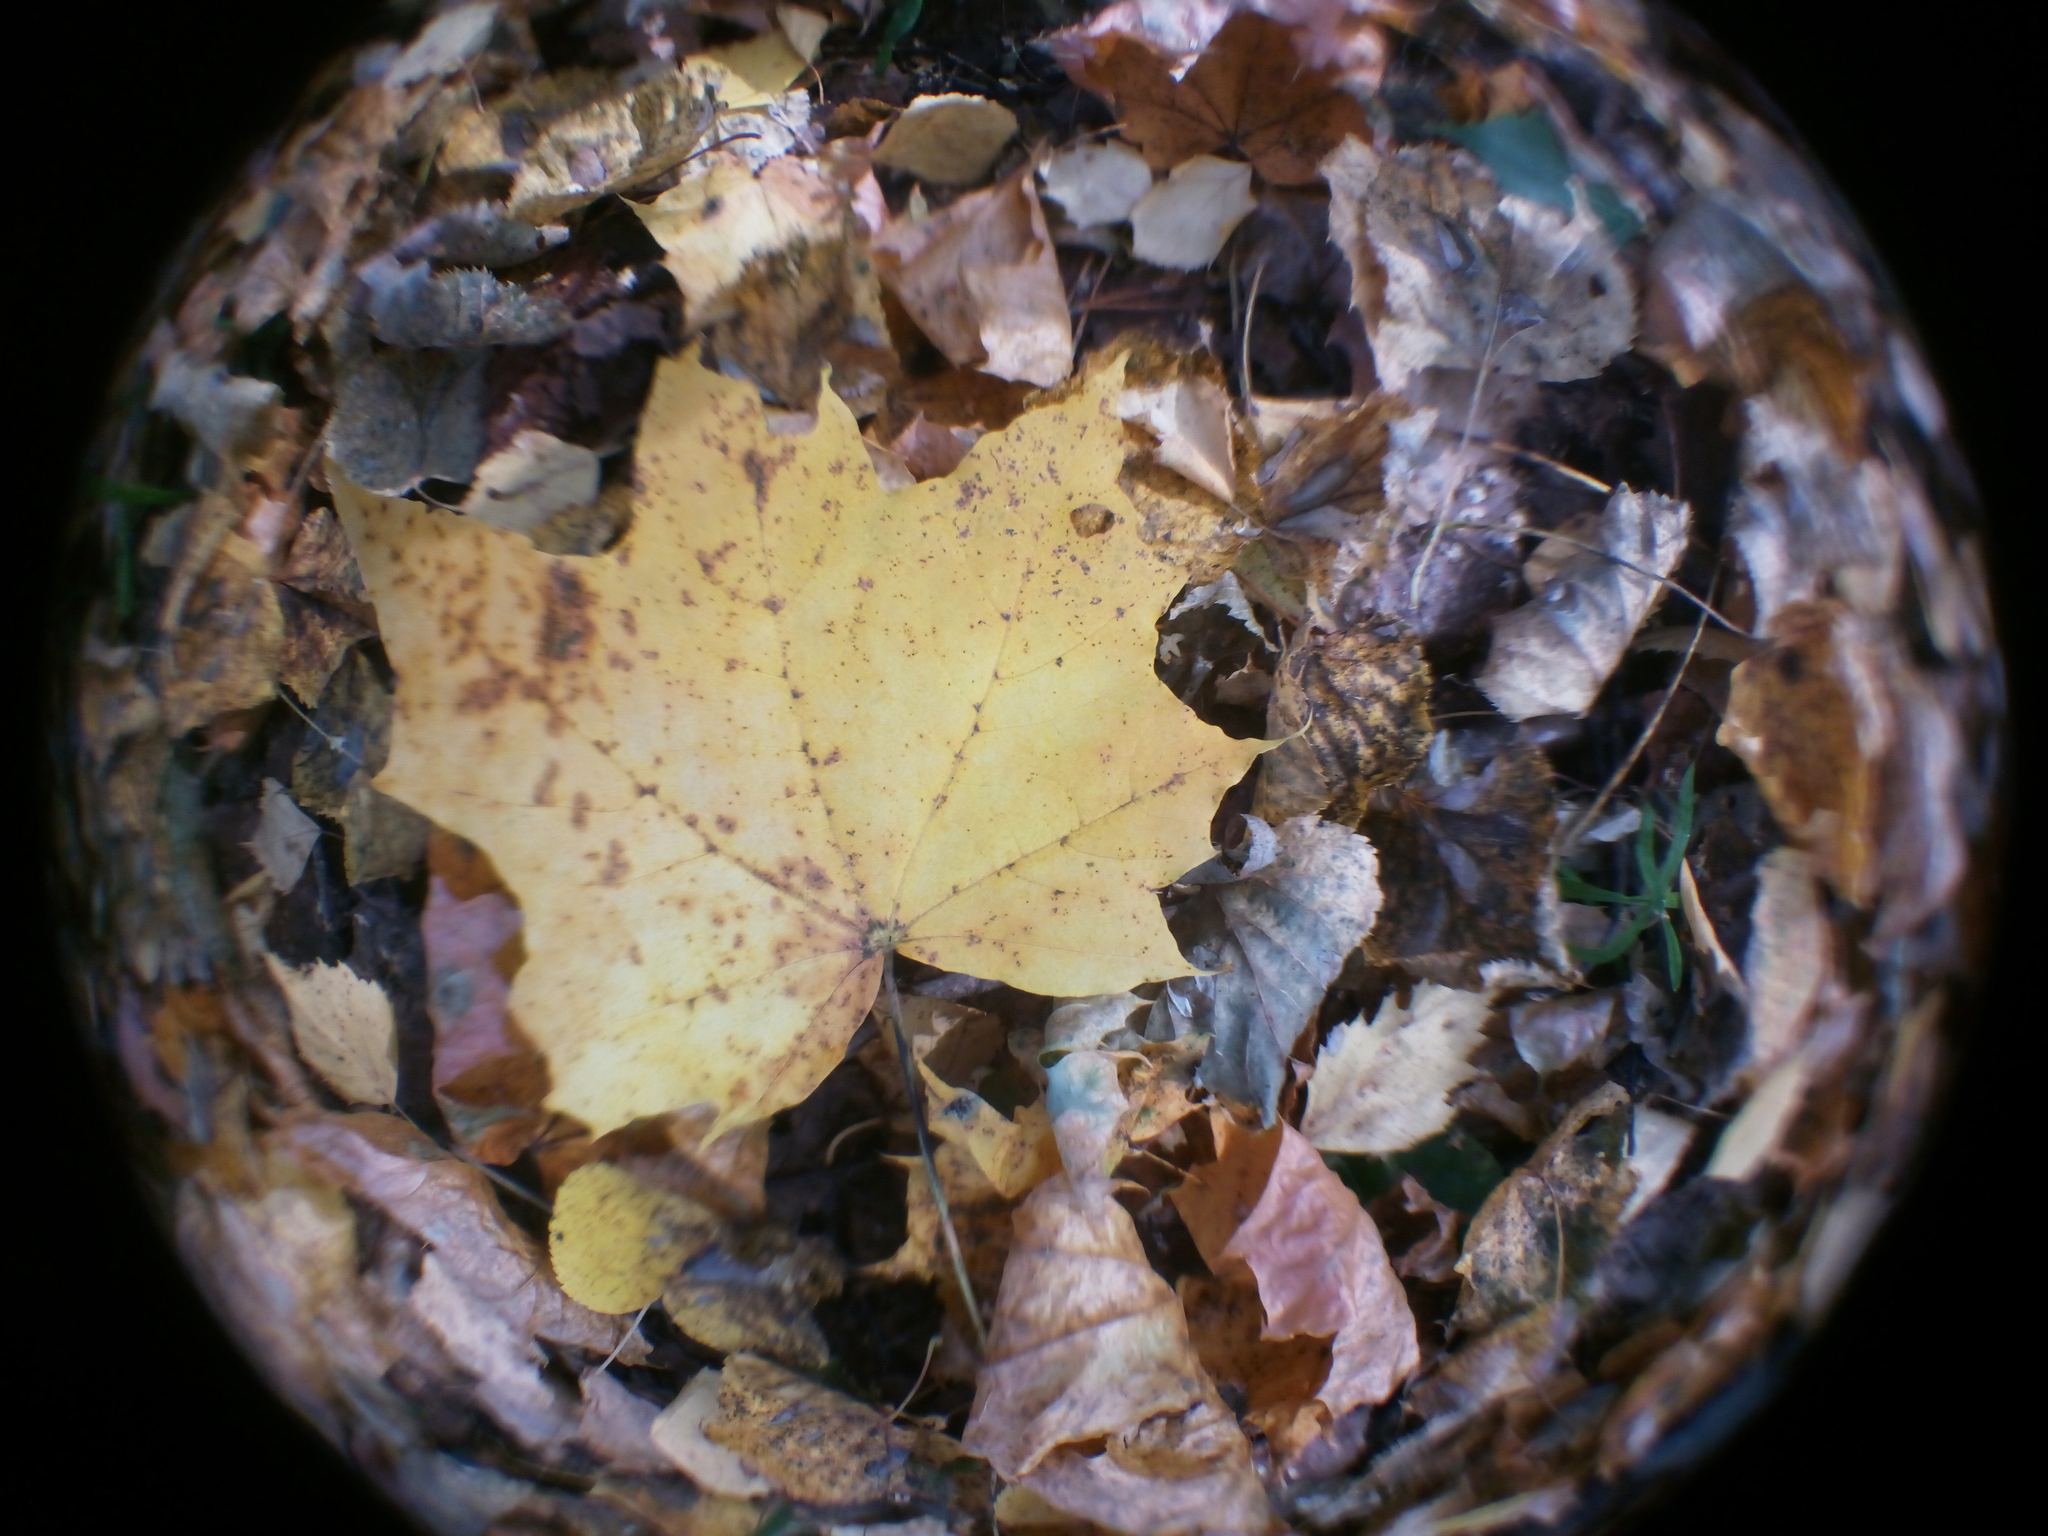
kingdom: Plantae
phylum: Tracheophyta
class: Magnoliopsida
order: Sapindales
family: Sapindaceae
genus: Acer
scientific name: Acer platanoides
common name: Norway maple
